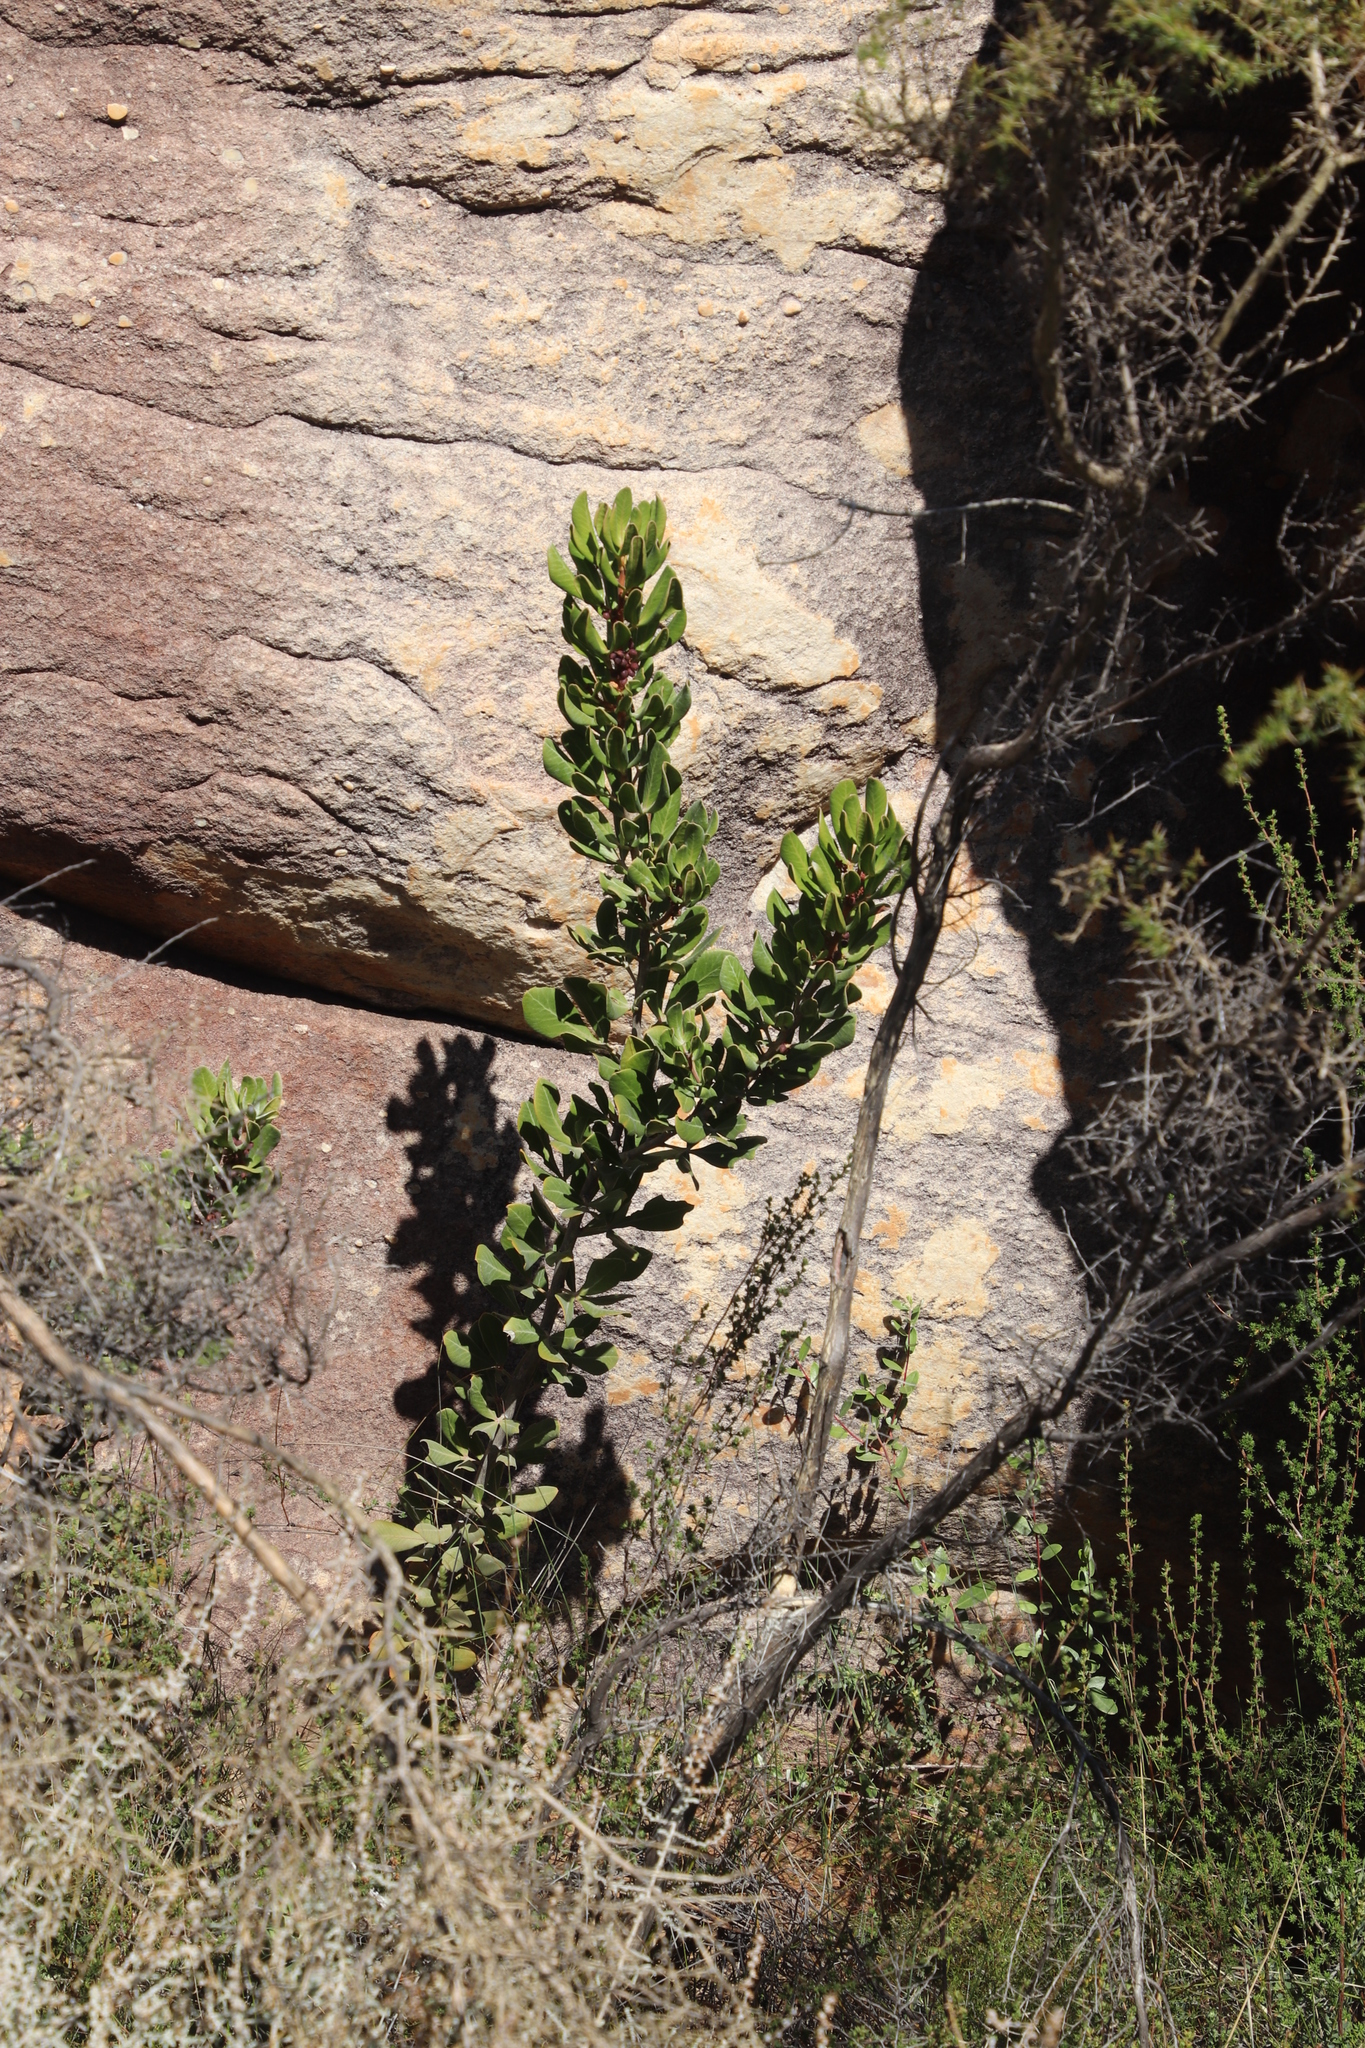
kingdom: Plantae
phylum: Tracheophyta
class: Magnoliopsida
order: Sapindales
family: Anacardiaceae
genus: Searsia
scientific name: Searsia scytophylla
